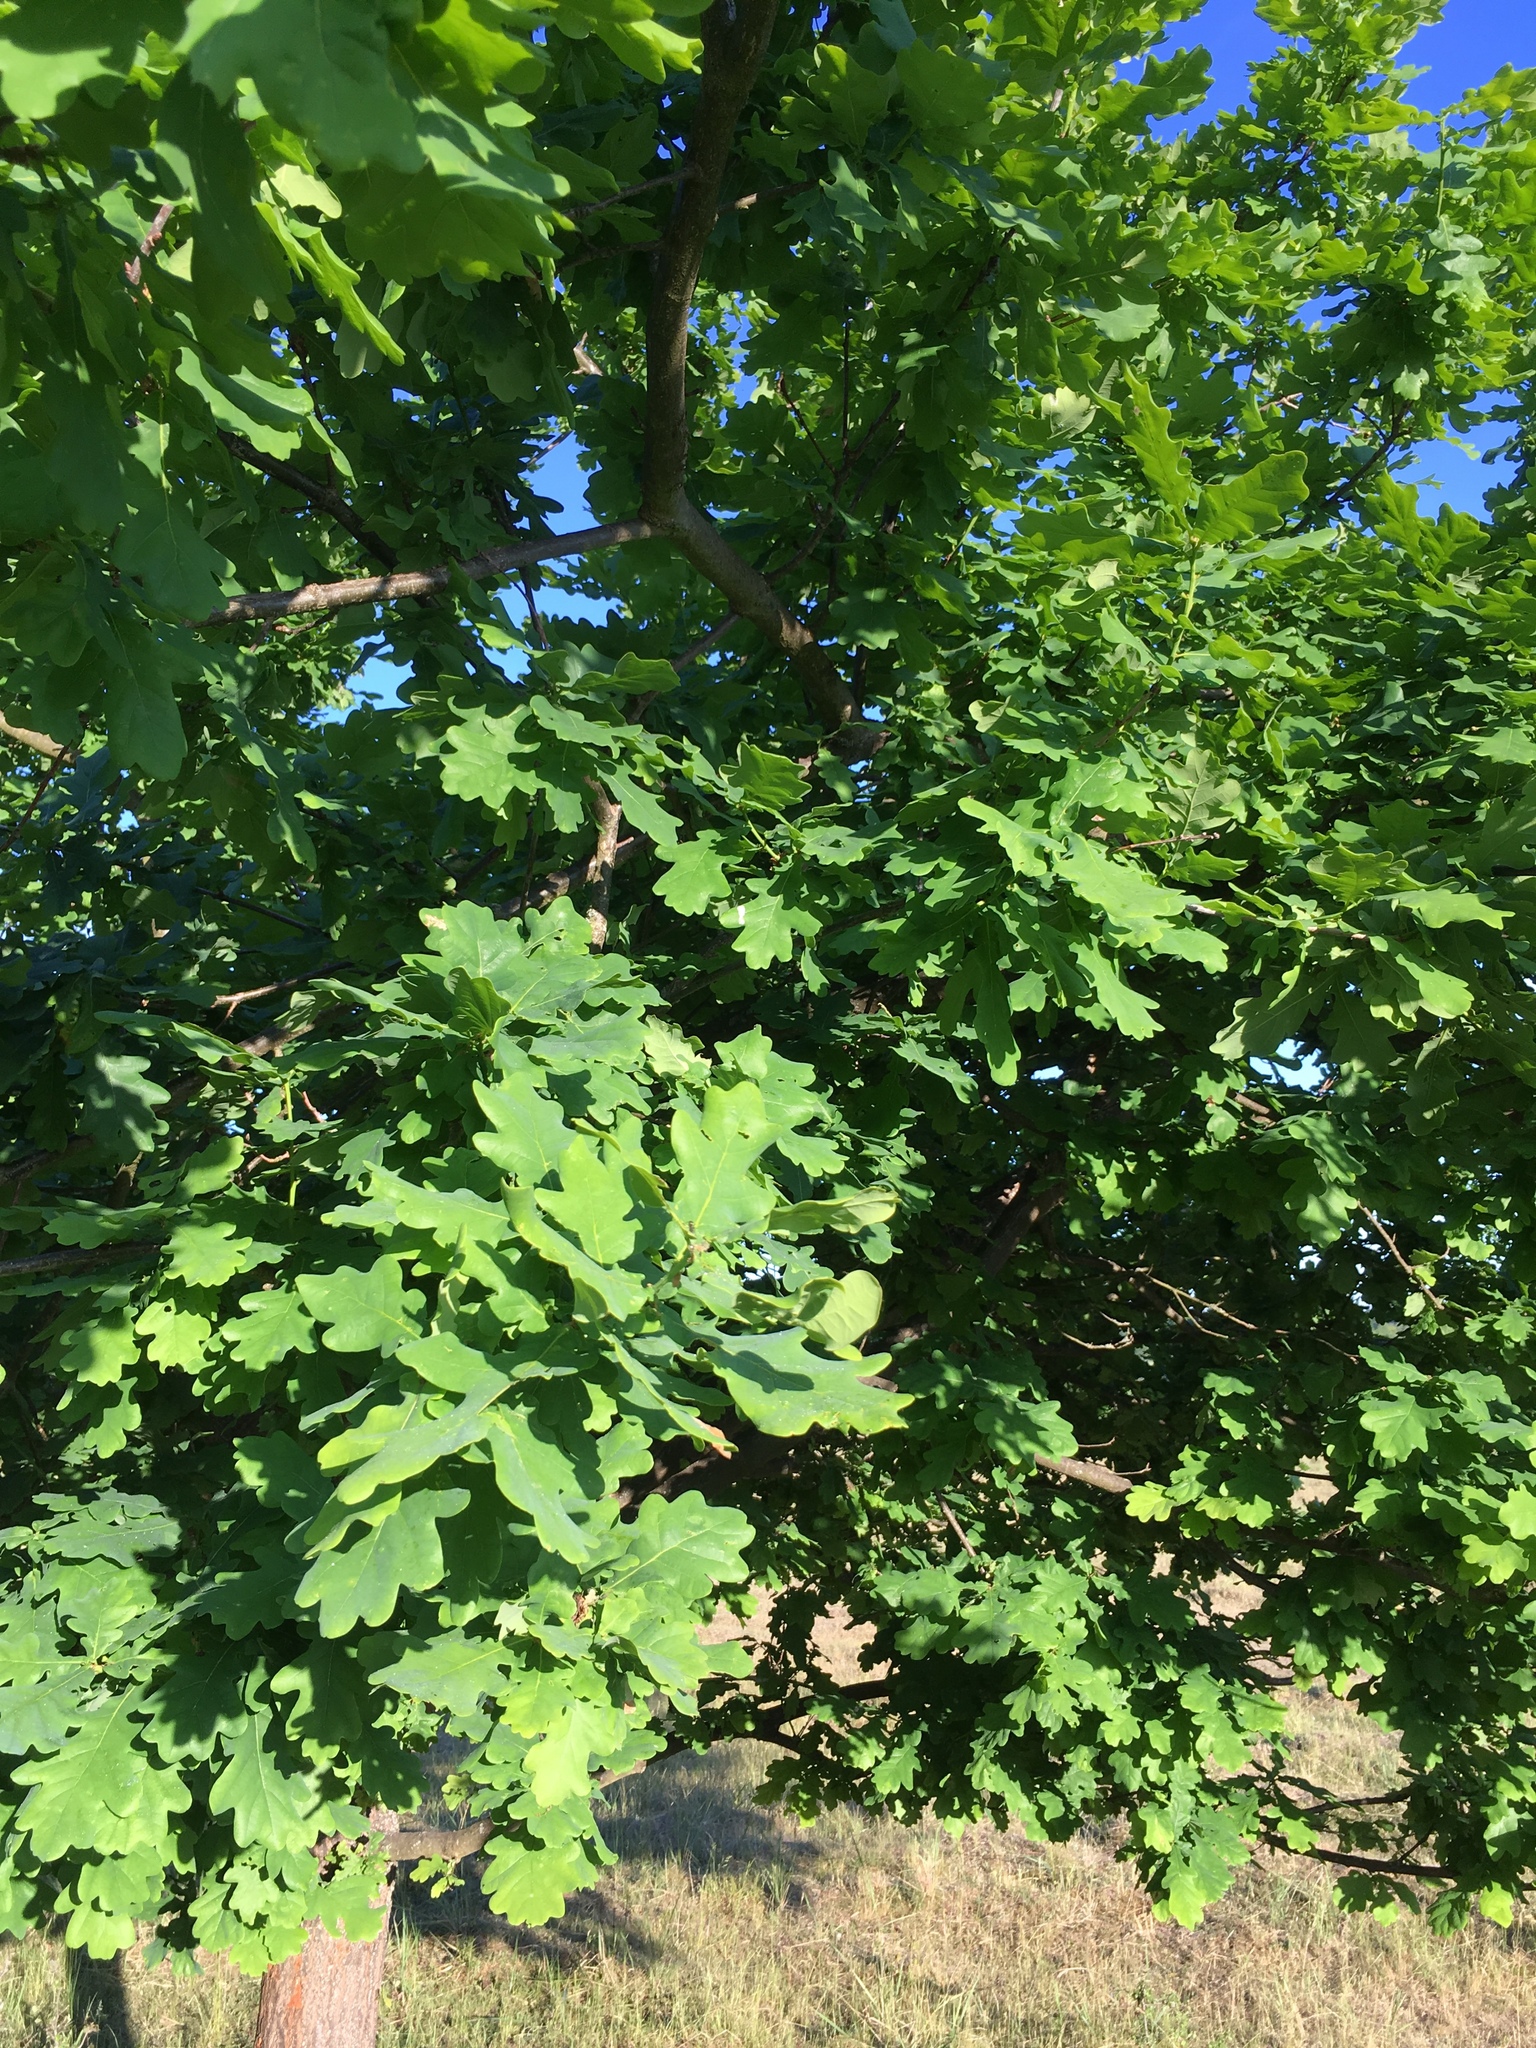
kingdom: Plantae
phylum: Tracheophyta
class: Magnoliopsida
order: Fagales
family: Fagaceae
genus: Quercus
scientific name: Quercus robur
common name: Pedunculate oak
